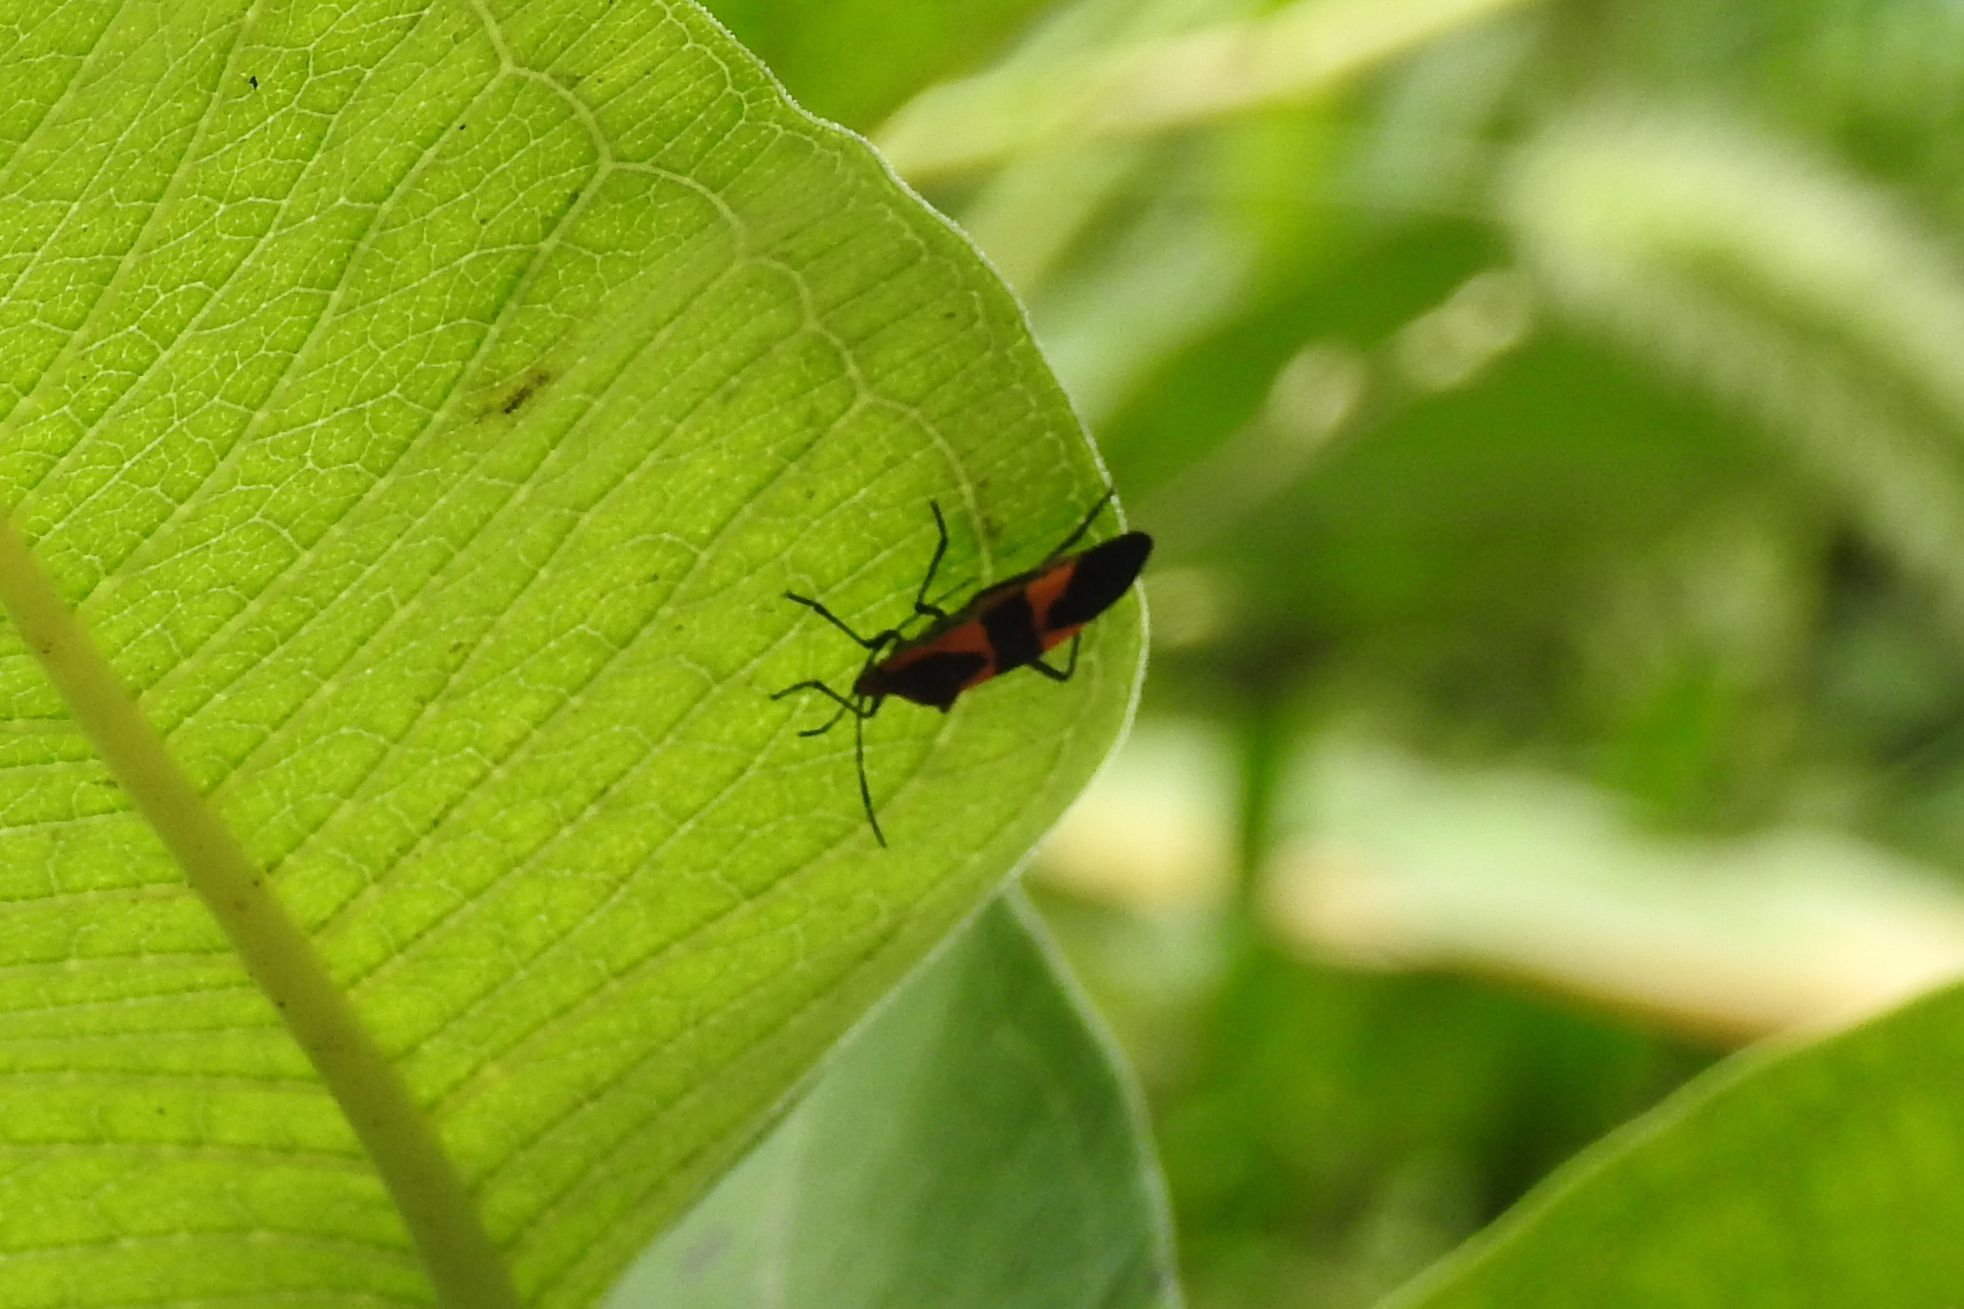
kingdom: Animalia
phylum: Arthropoda
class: Insecta
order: Hemiptera
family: Lygaeidae
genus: Oncopeltus
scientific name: Oncopeltus fasciatus
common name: Large milkweed bug
